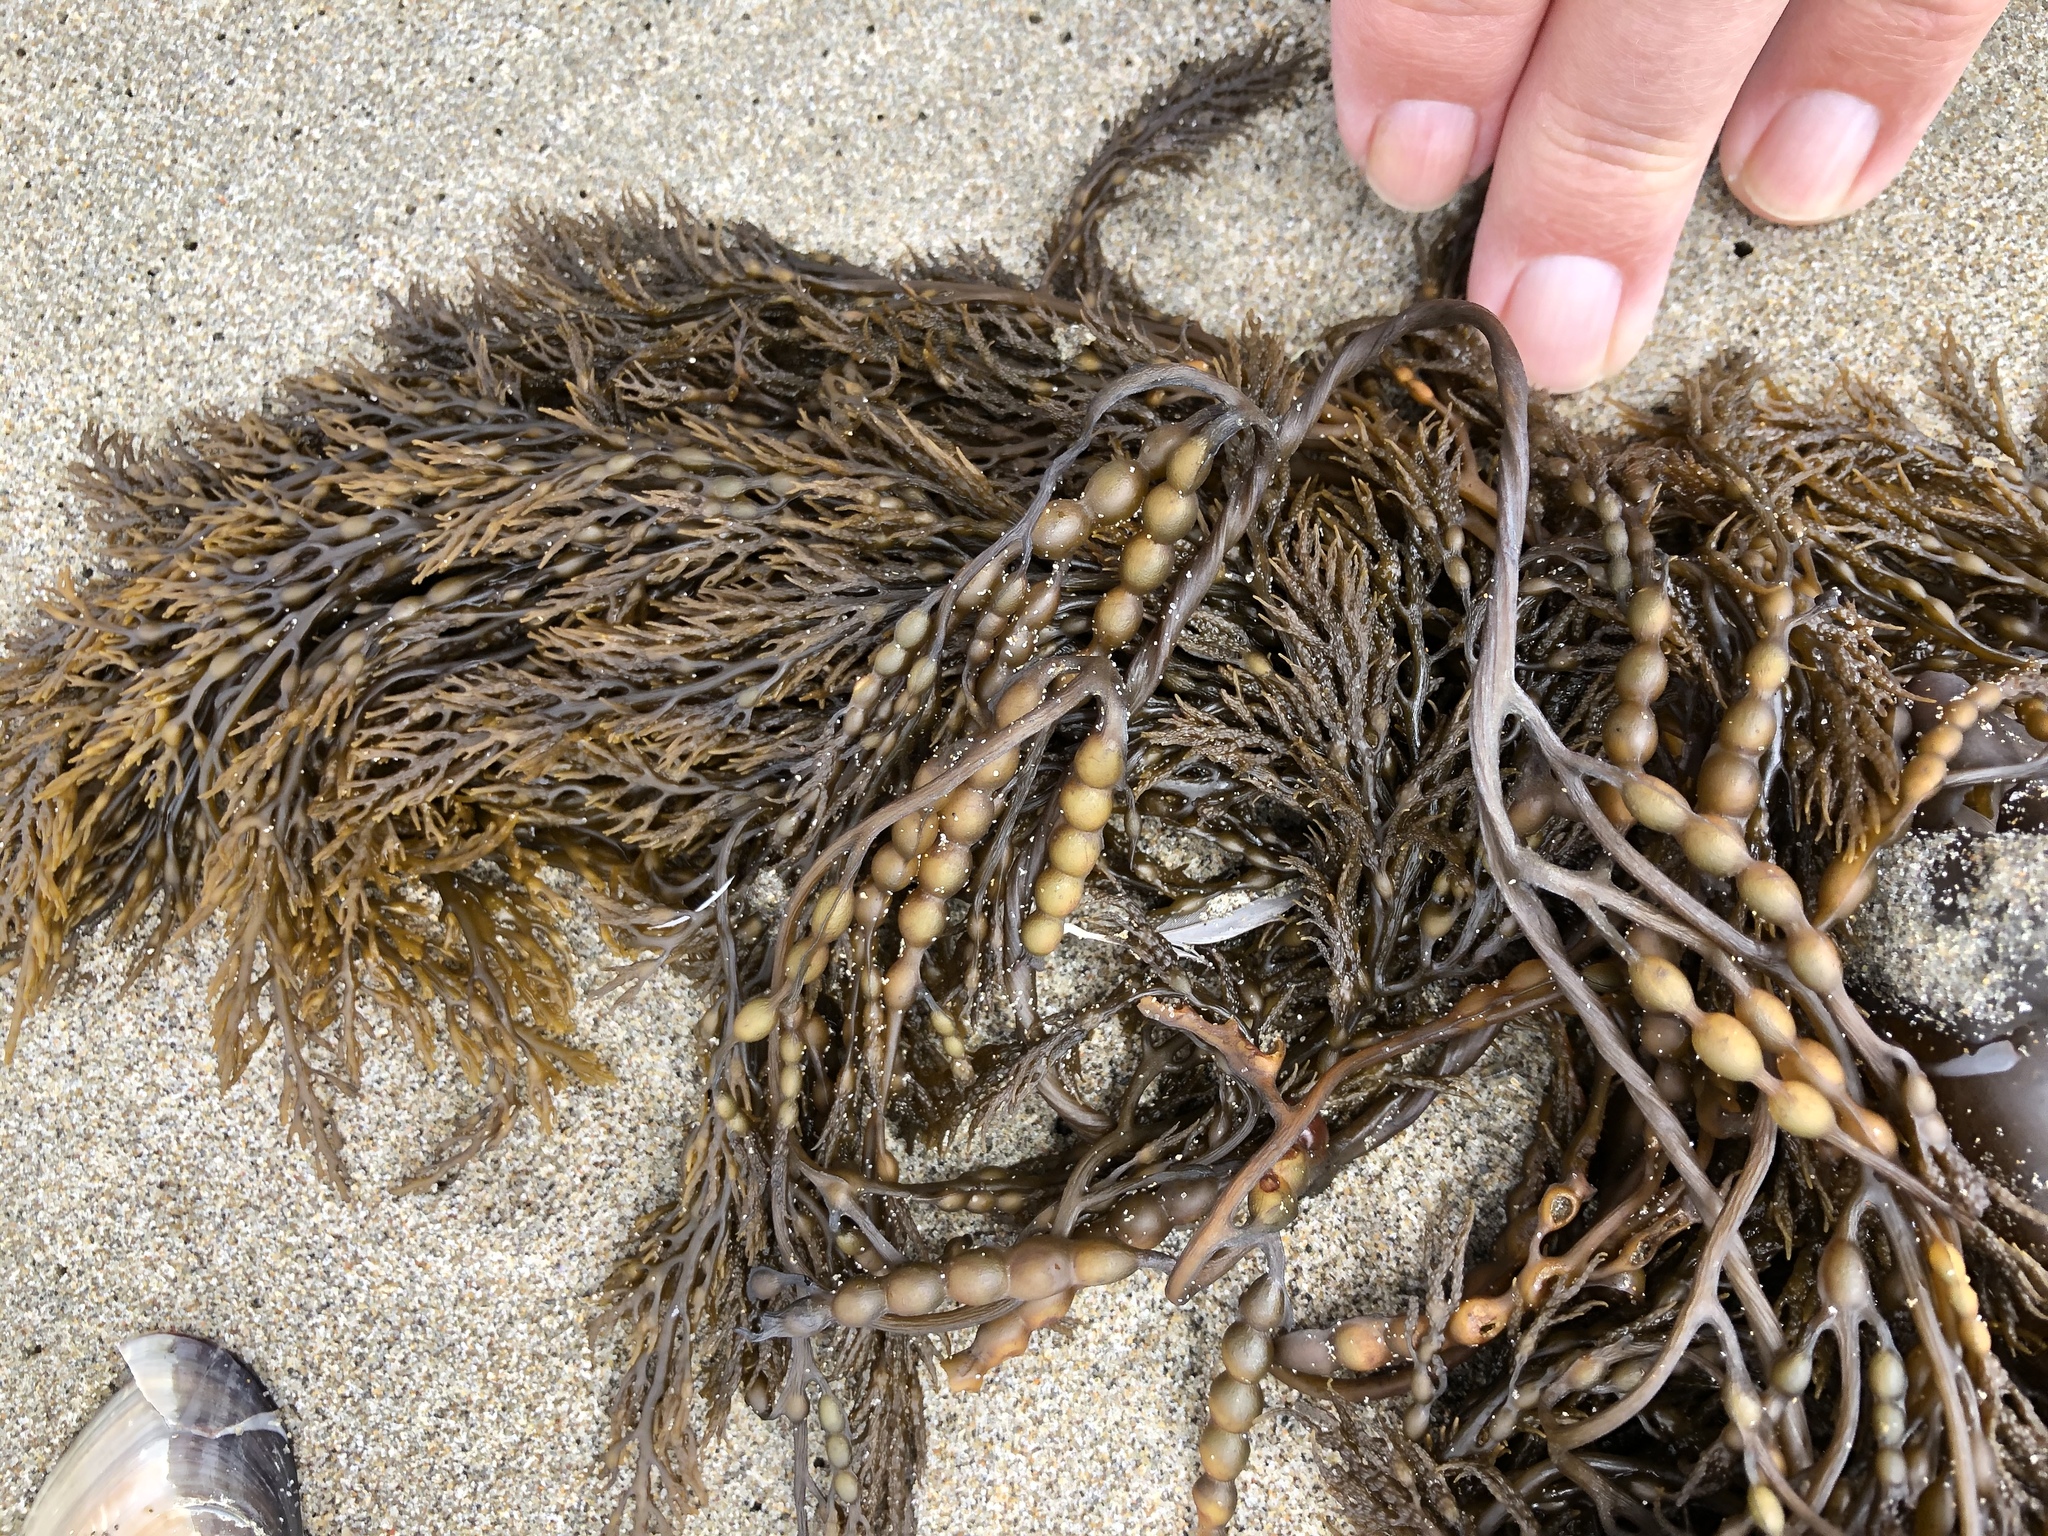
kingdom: Chromista
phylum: Ochrophyta
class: Phaeophyceae
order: Fucales
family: Sargassaceae
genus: Stephanocystis
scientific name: Stephanocystis
